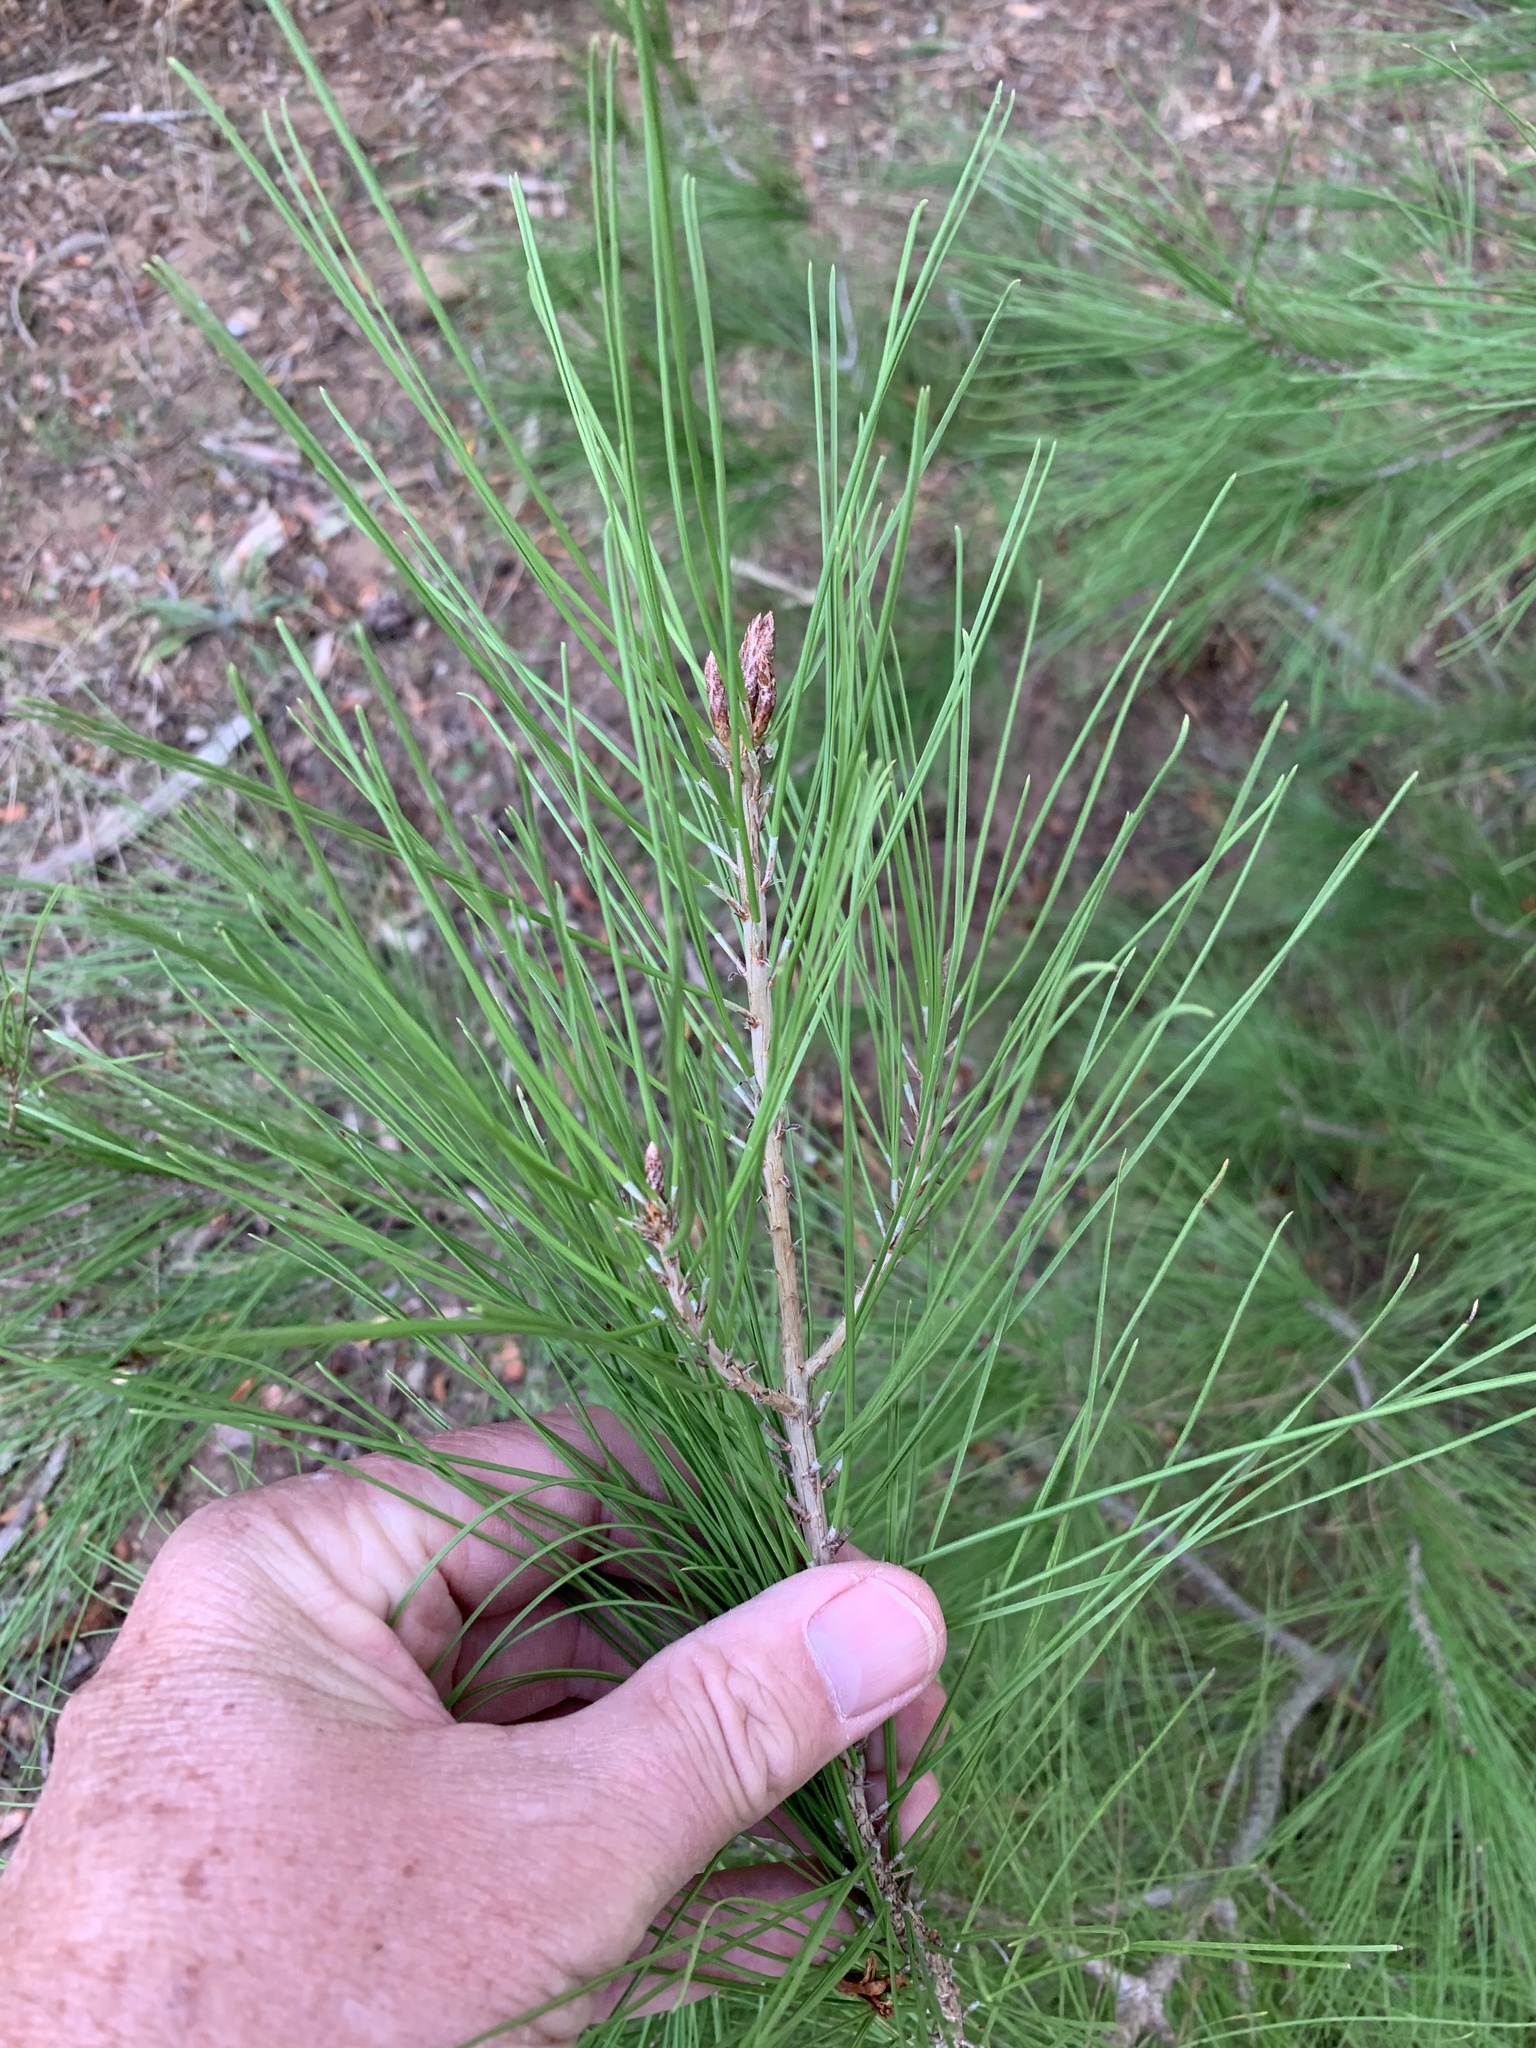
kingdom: Plantae
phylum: Tracheophyta
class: Pinopsida
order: Pinales
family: Pinaceae
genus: Pinus
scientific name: Pinus halepensis
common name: Aleppo pine
